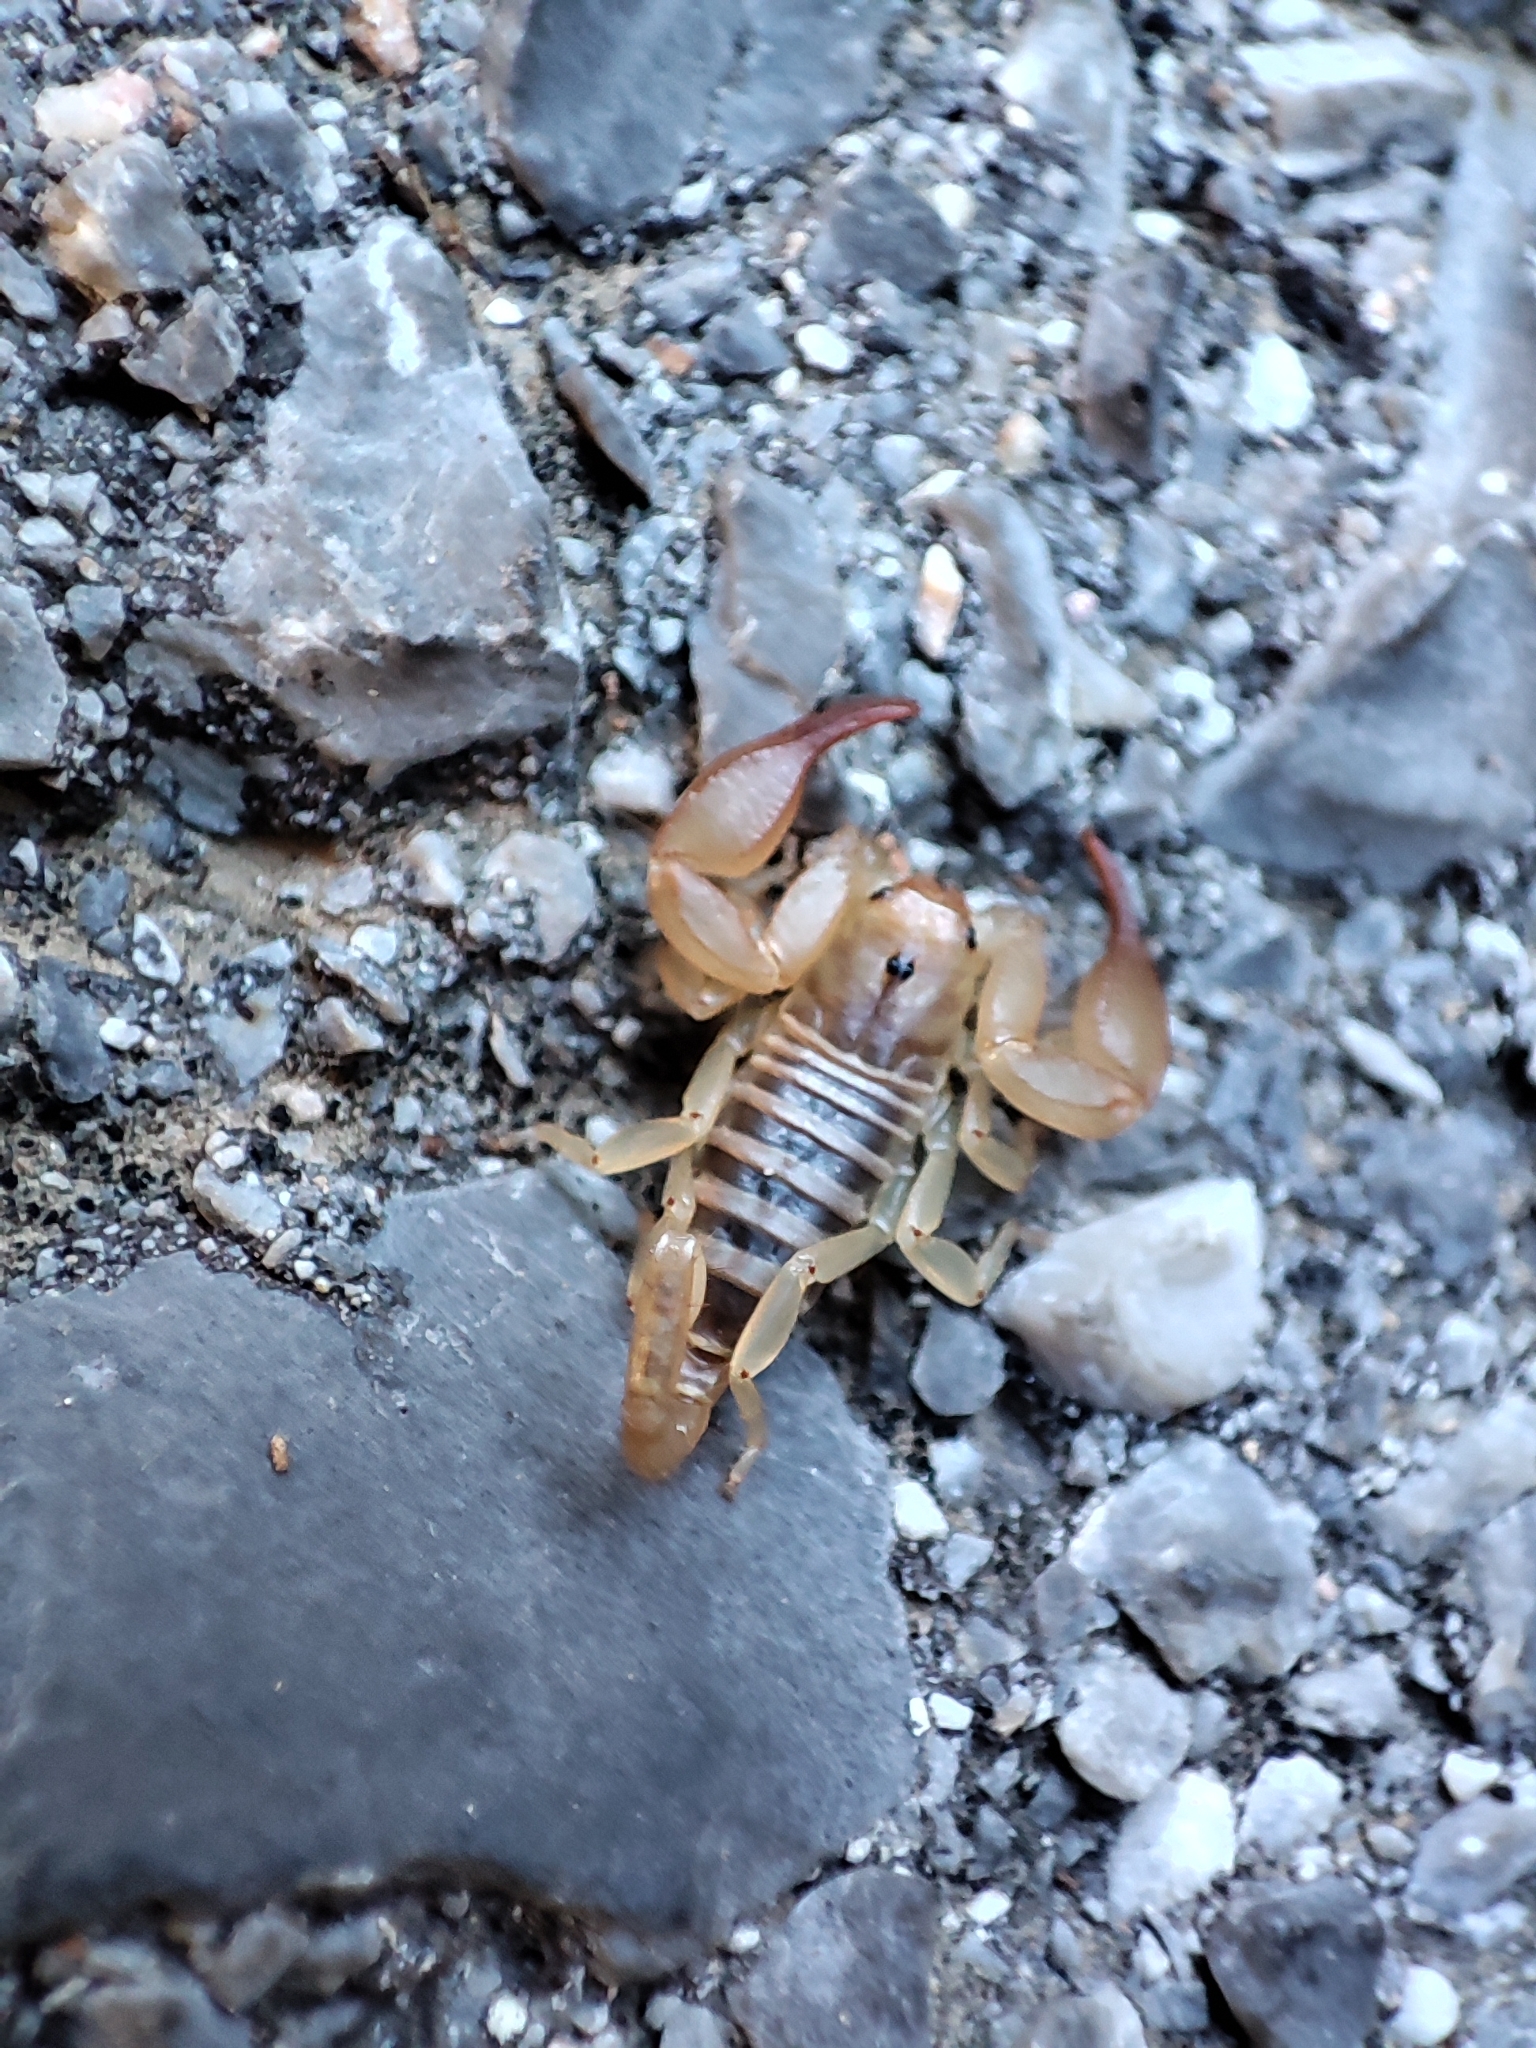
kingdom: Animalia
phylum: Arthropoda
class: Arachnida
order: Scorpiones
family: Euscorpiidae
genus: Euscorpius
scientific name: Euscorpius candiota
